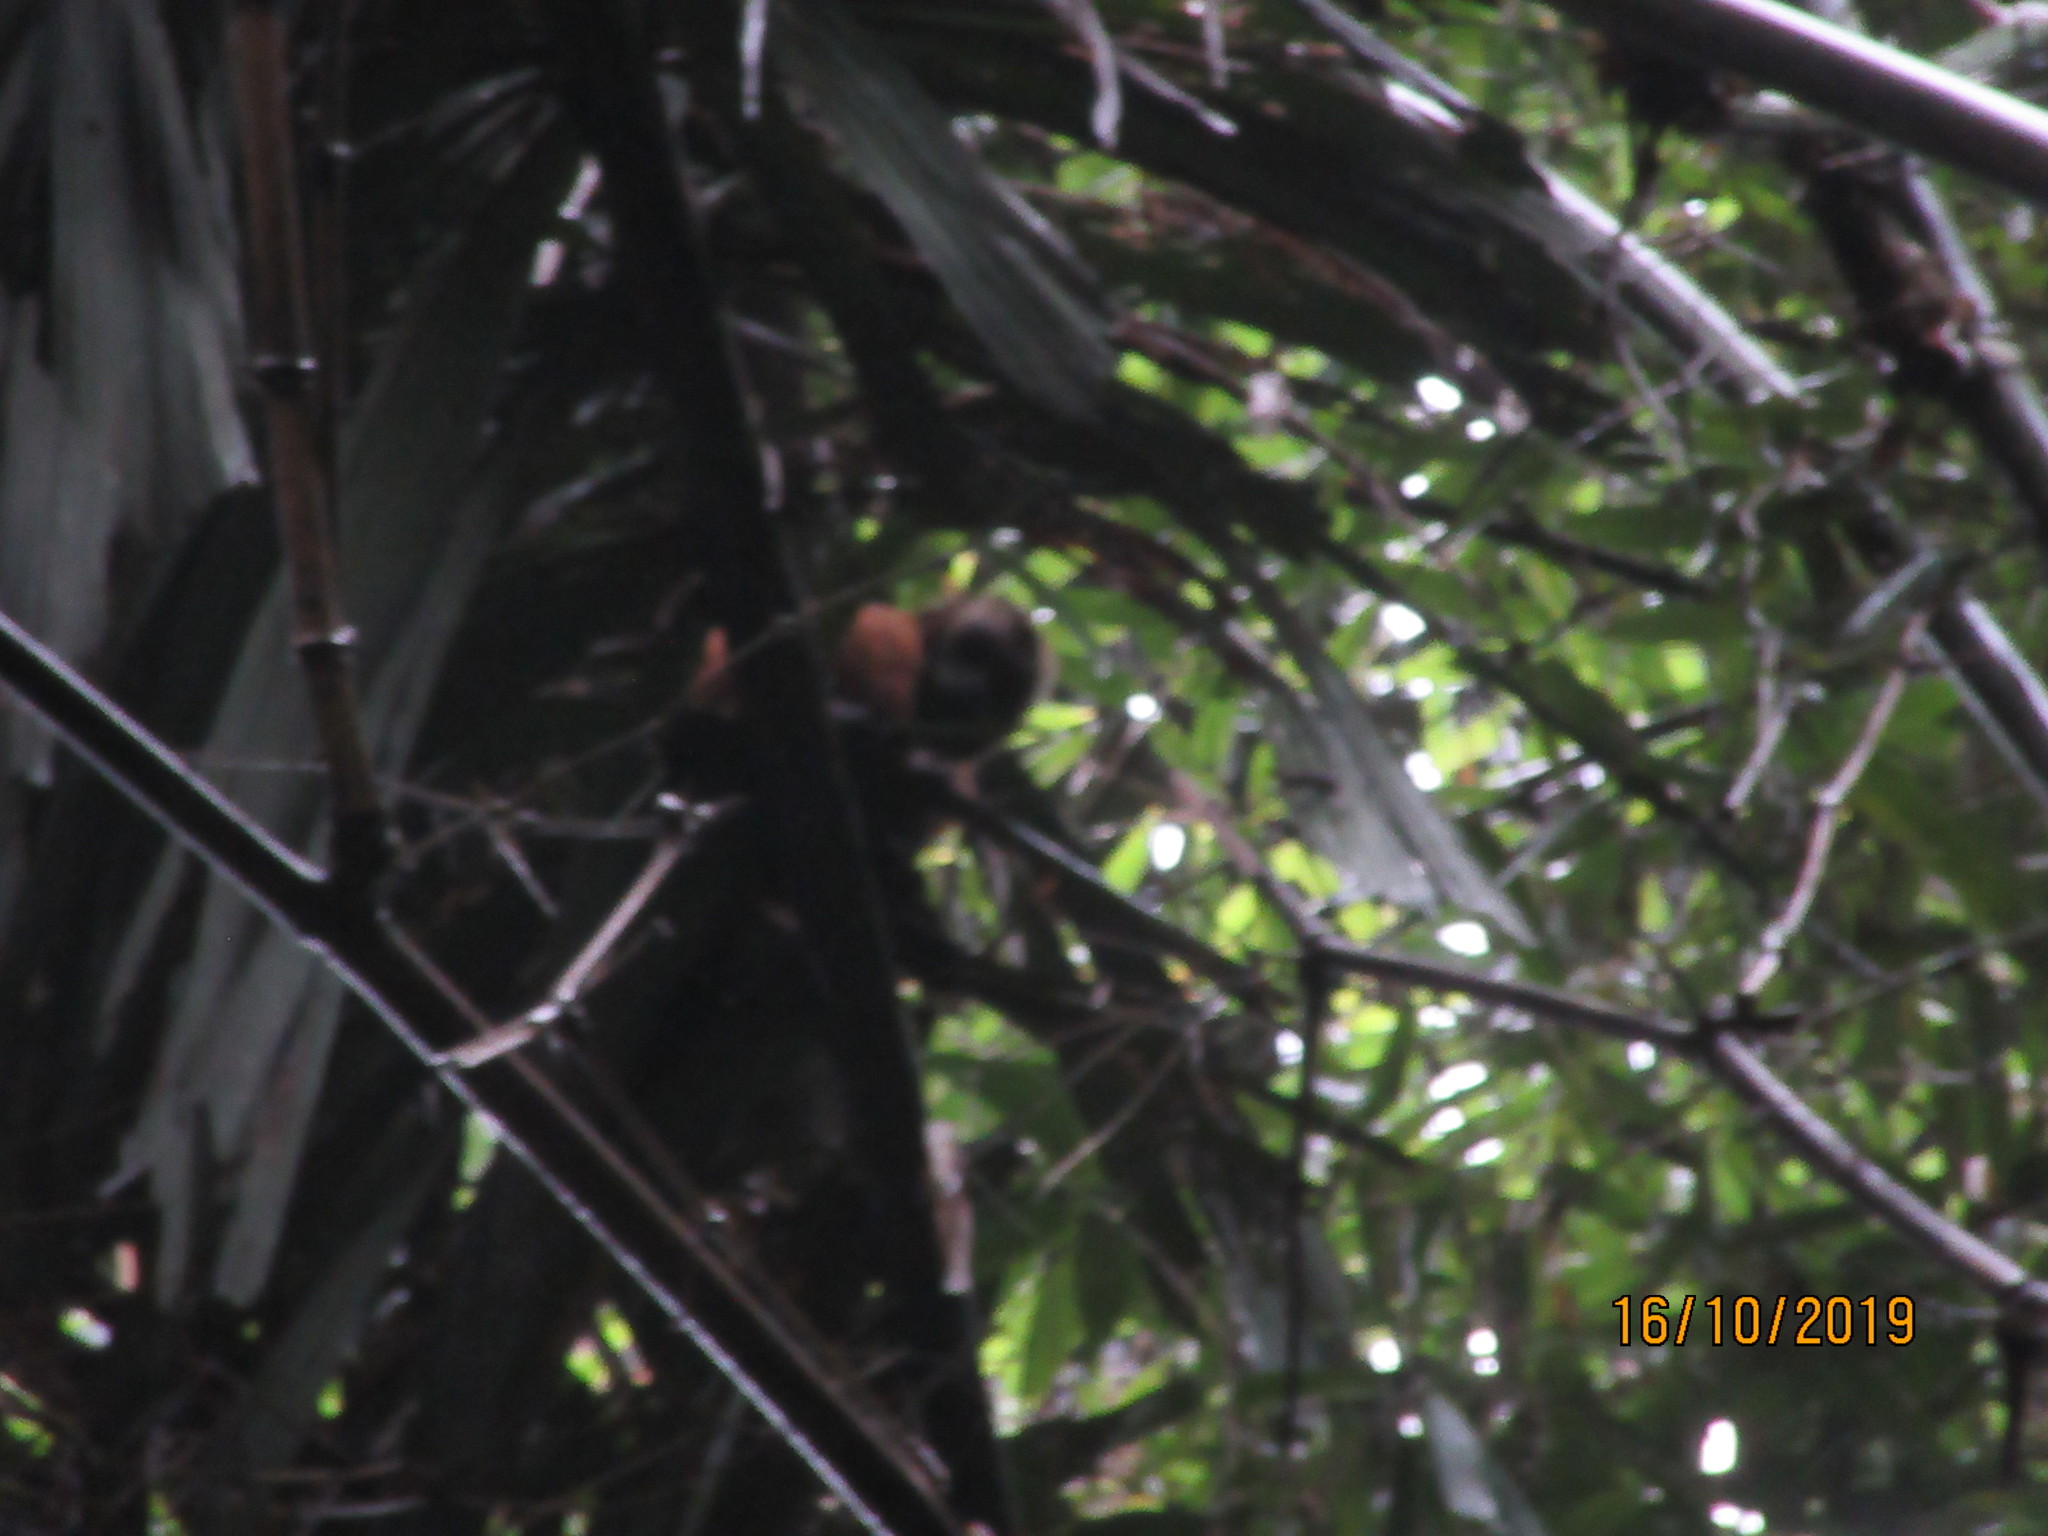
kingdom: Animalia
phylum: Chordata
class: Mammalia
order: Primates
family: Cebidae
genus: Sapajus
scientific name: Sapajus apella
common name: Tufted capuchin
